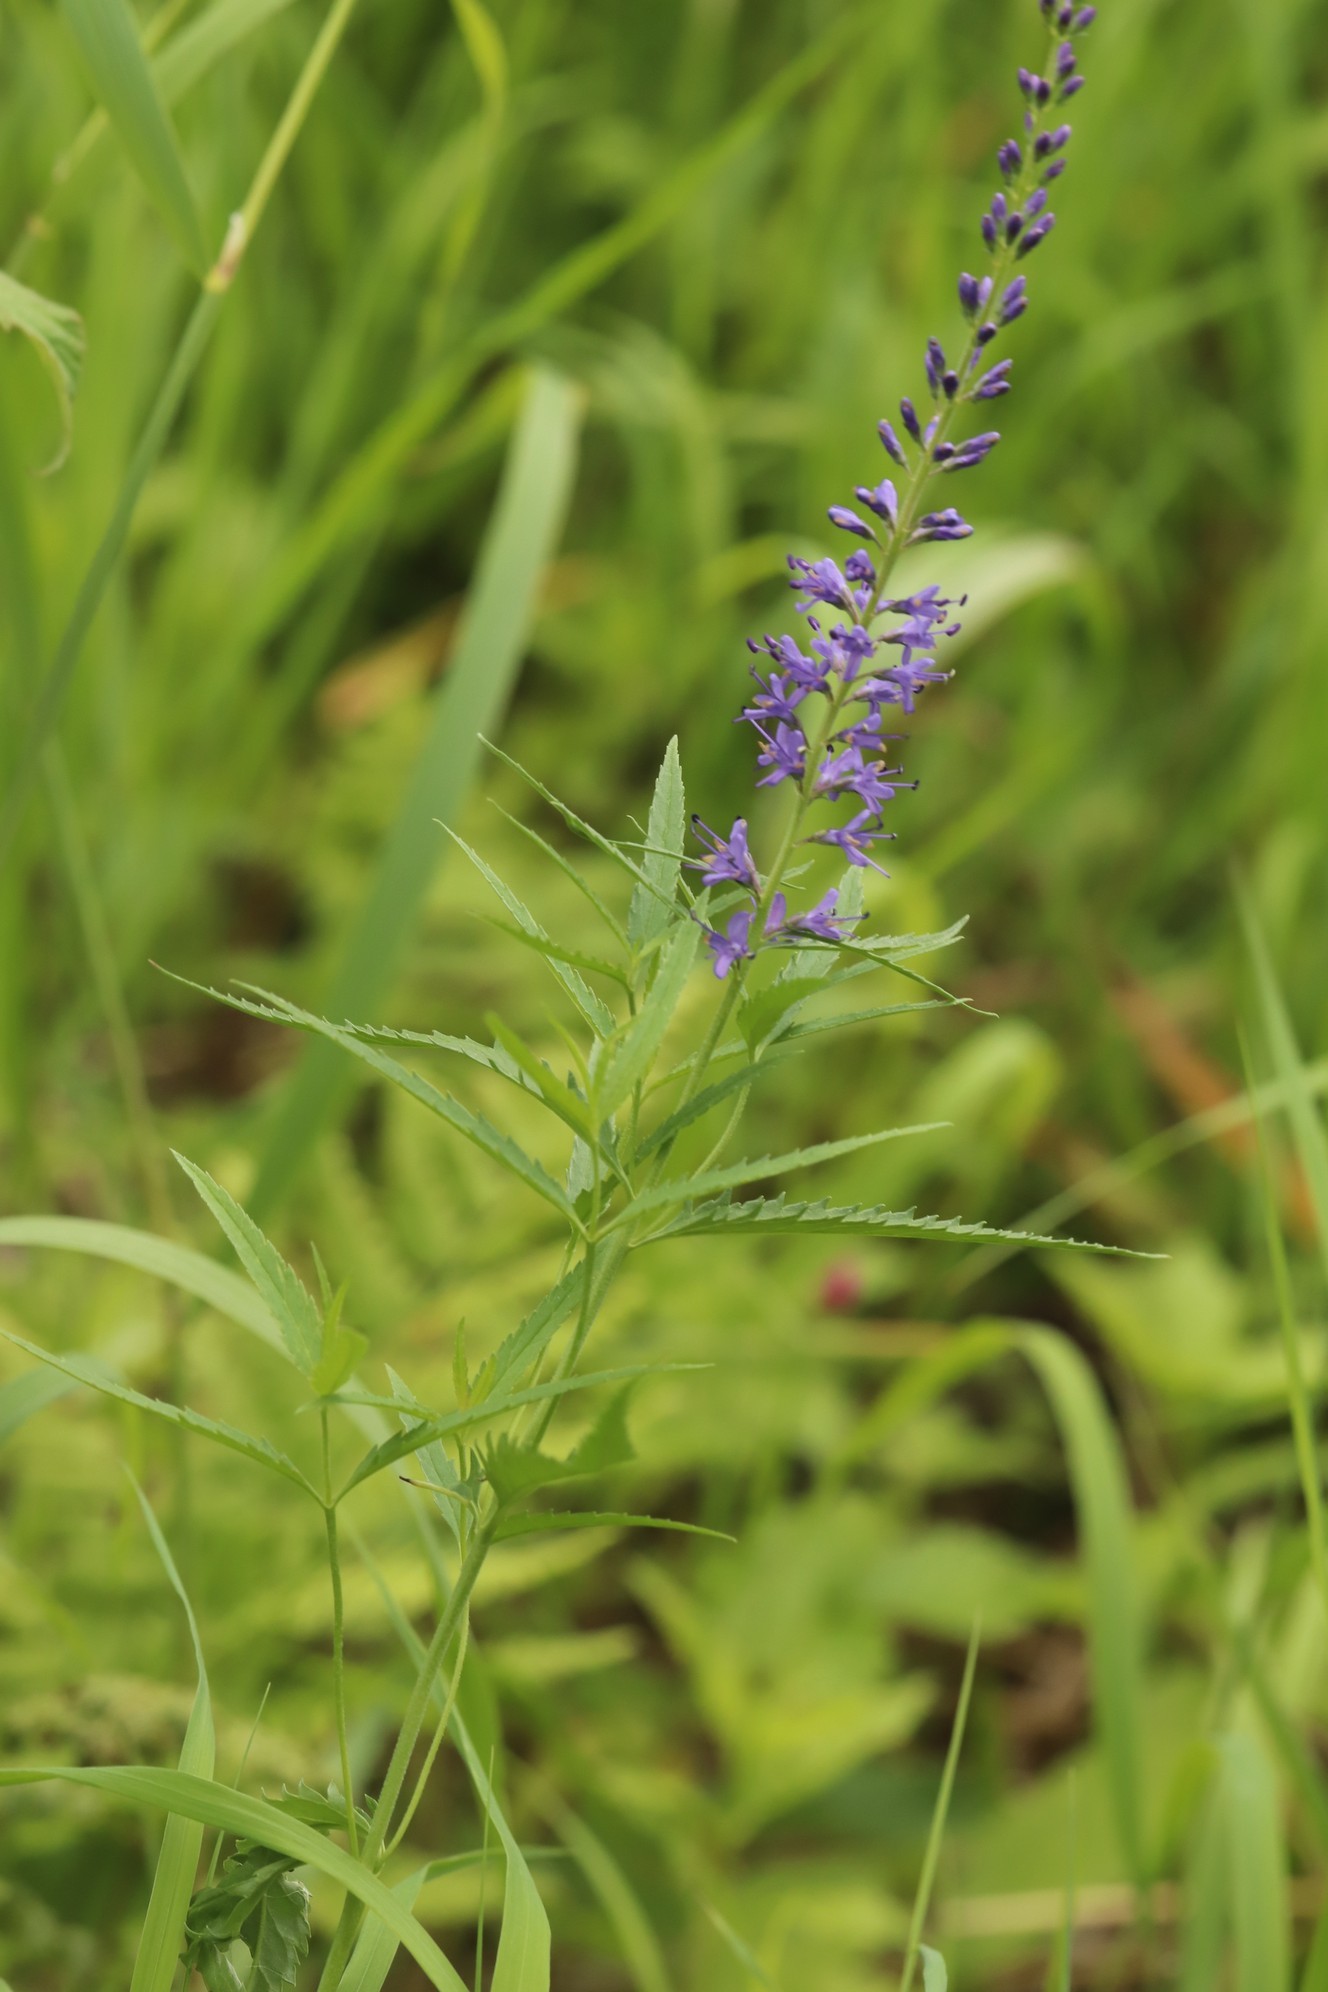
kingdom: Plantae
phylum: Tracheophyta
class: Magnoliopsida
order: Lamiales
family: Plantaginaceae
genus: Veronica
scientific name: Veronica longifolia
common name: Garden speedwell
